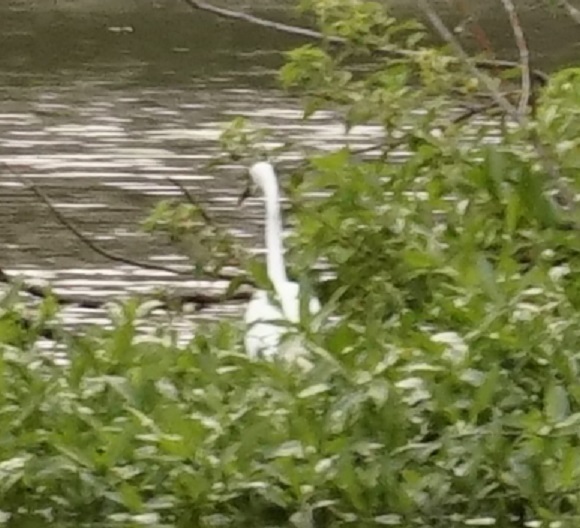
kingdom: Animalia
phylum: Chordata
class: Aves
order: Pelecaniformes
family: Ardeidae
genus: Ardea
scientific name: Ardea alba
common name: Great egret
